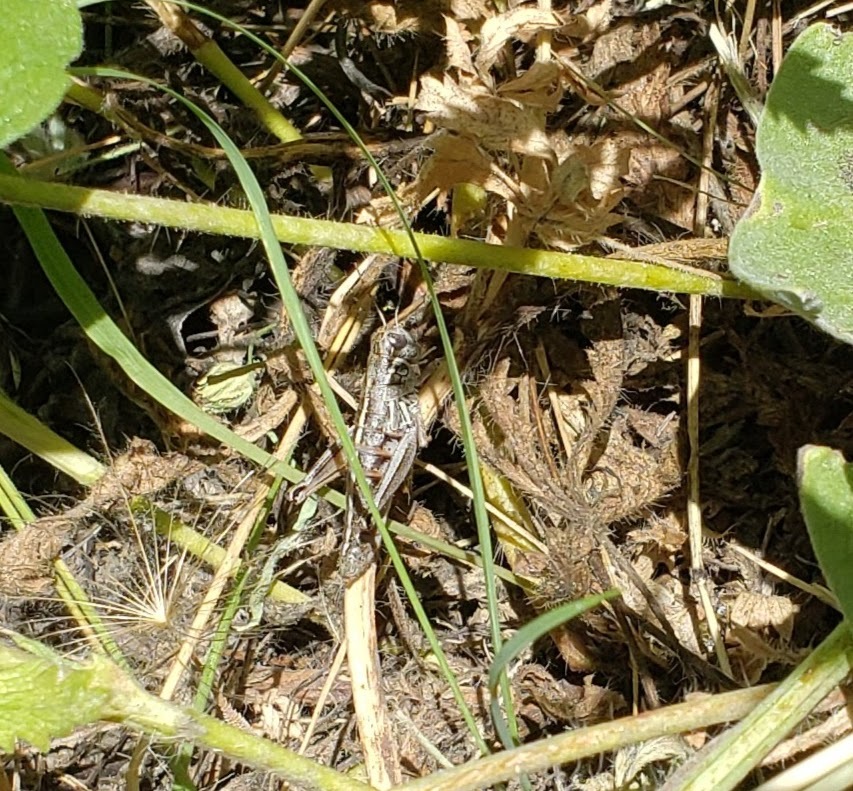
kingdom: Animalia
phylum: Arthropoda
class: Insecta
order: Orthoptera
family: Acrididae
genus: Asemoplus
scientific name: Asemoplus montanus
